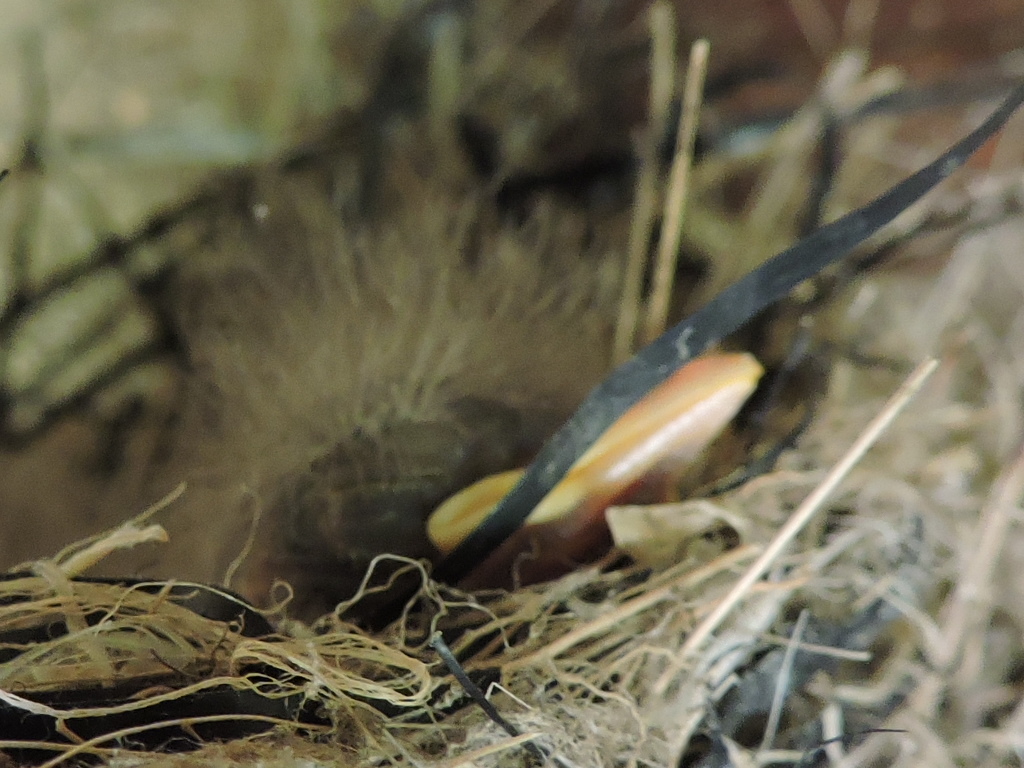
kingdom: Animalia
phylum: Chordata
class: Aves
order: Passeriformes
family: Tyrannidae
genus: Sayornis
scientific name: Sayornis phoebe
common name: Eastern phoebe
